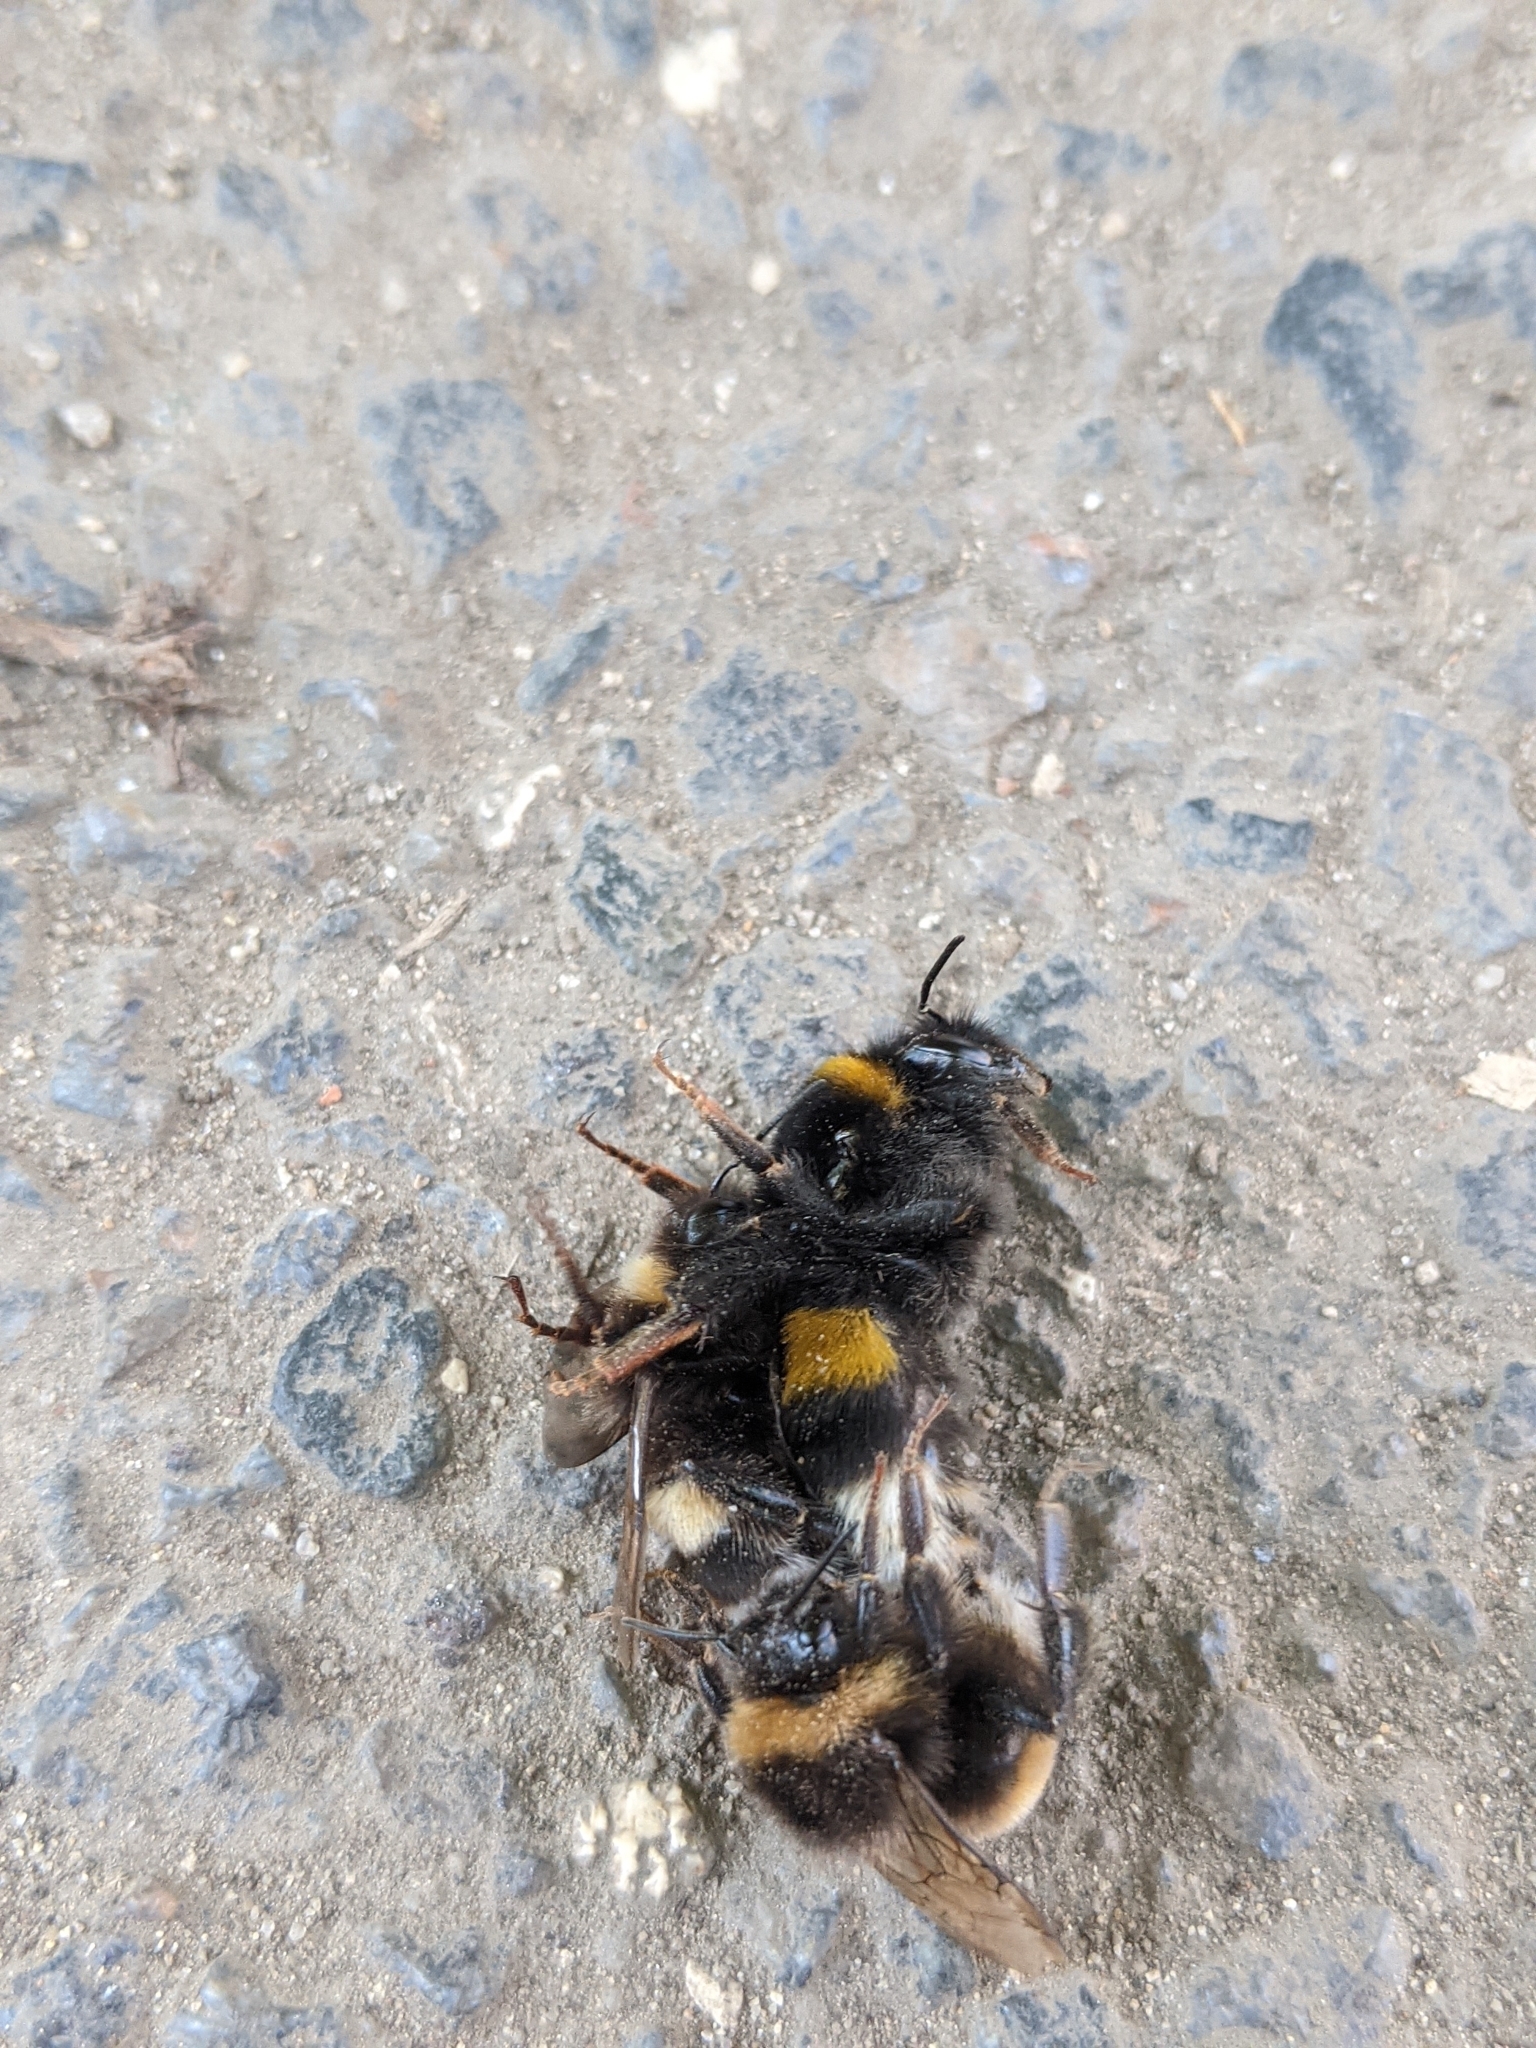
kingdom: Animalia
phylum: Arthropoda
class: Insecta
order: Hymenoptera
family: Apidae
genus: Bombus
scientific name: Bombus
